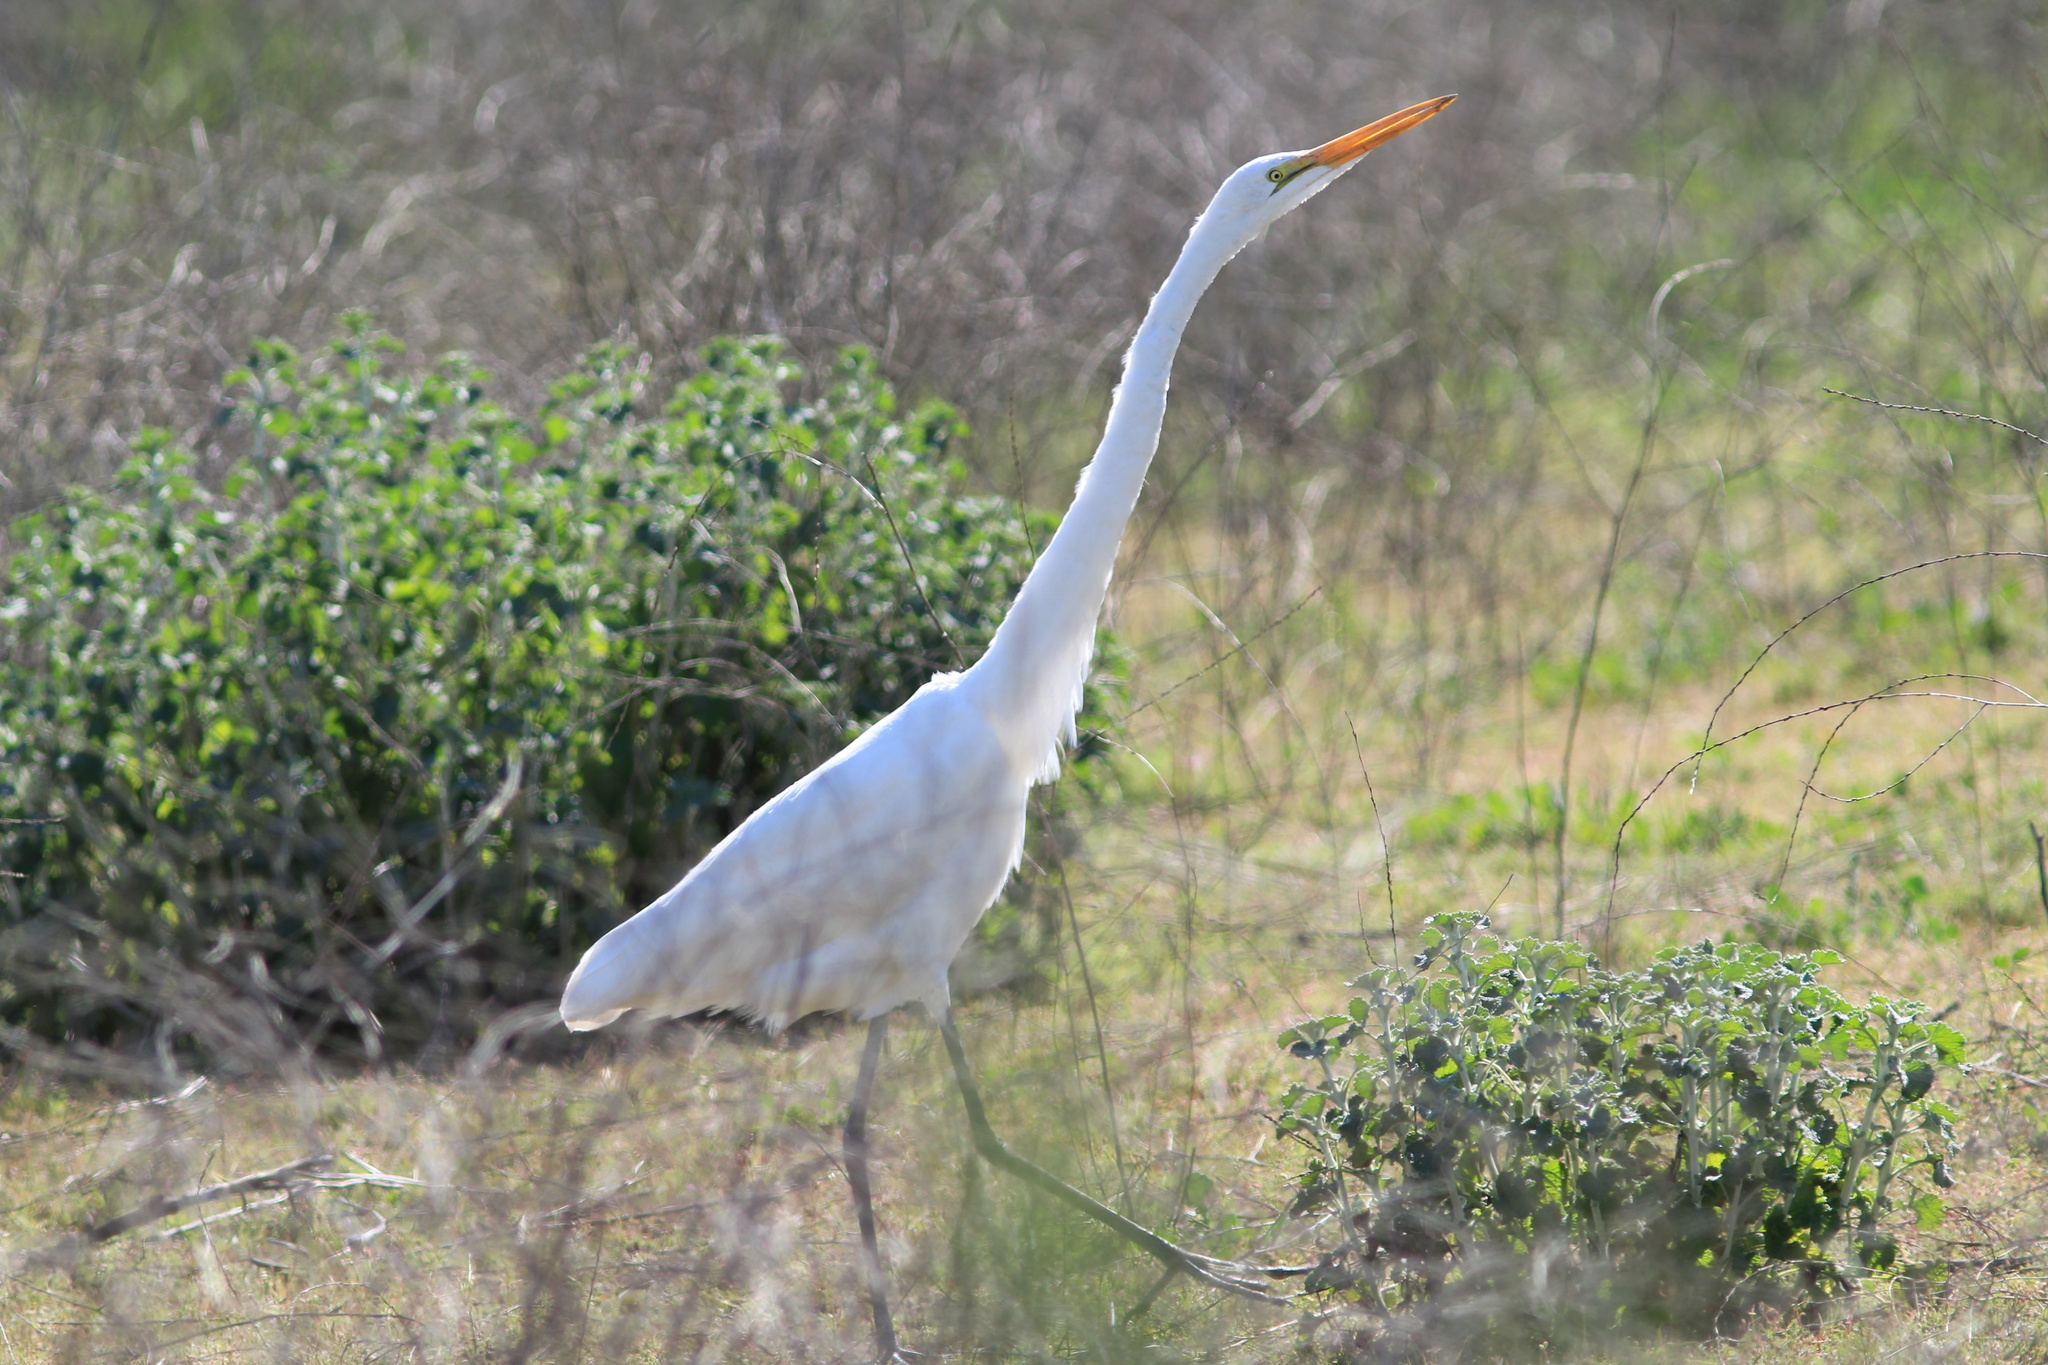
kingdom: Animalia
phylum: Chordata
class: Aves
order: Pelecaniformes
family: Ardeidae
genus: Ardea
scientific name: Ardea alba
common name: Great egret
